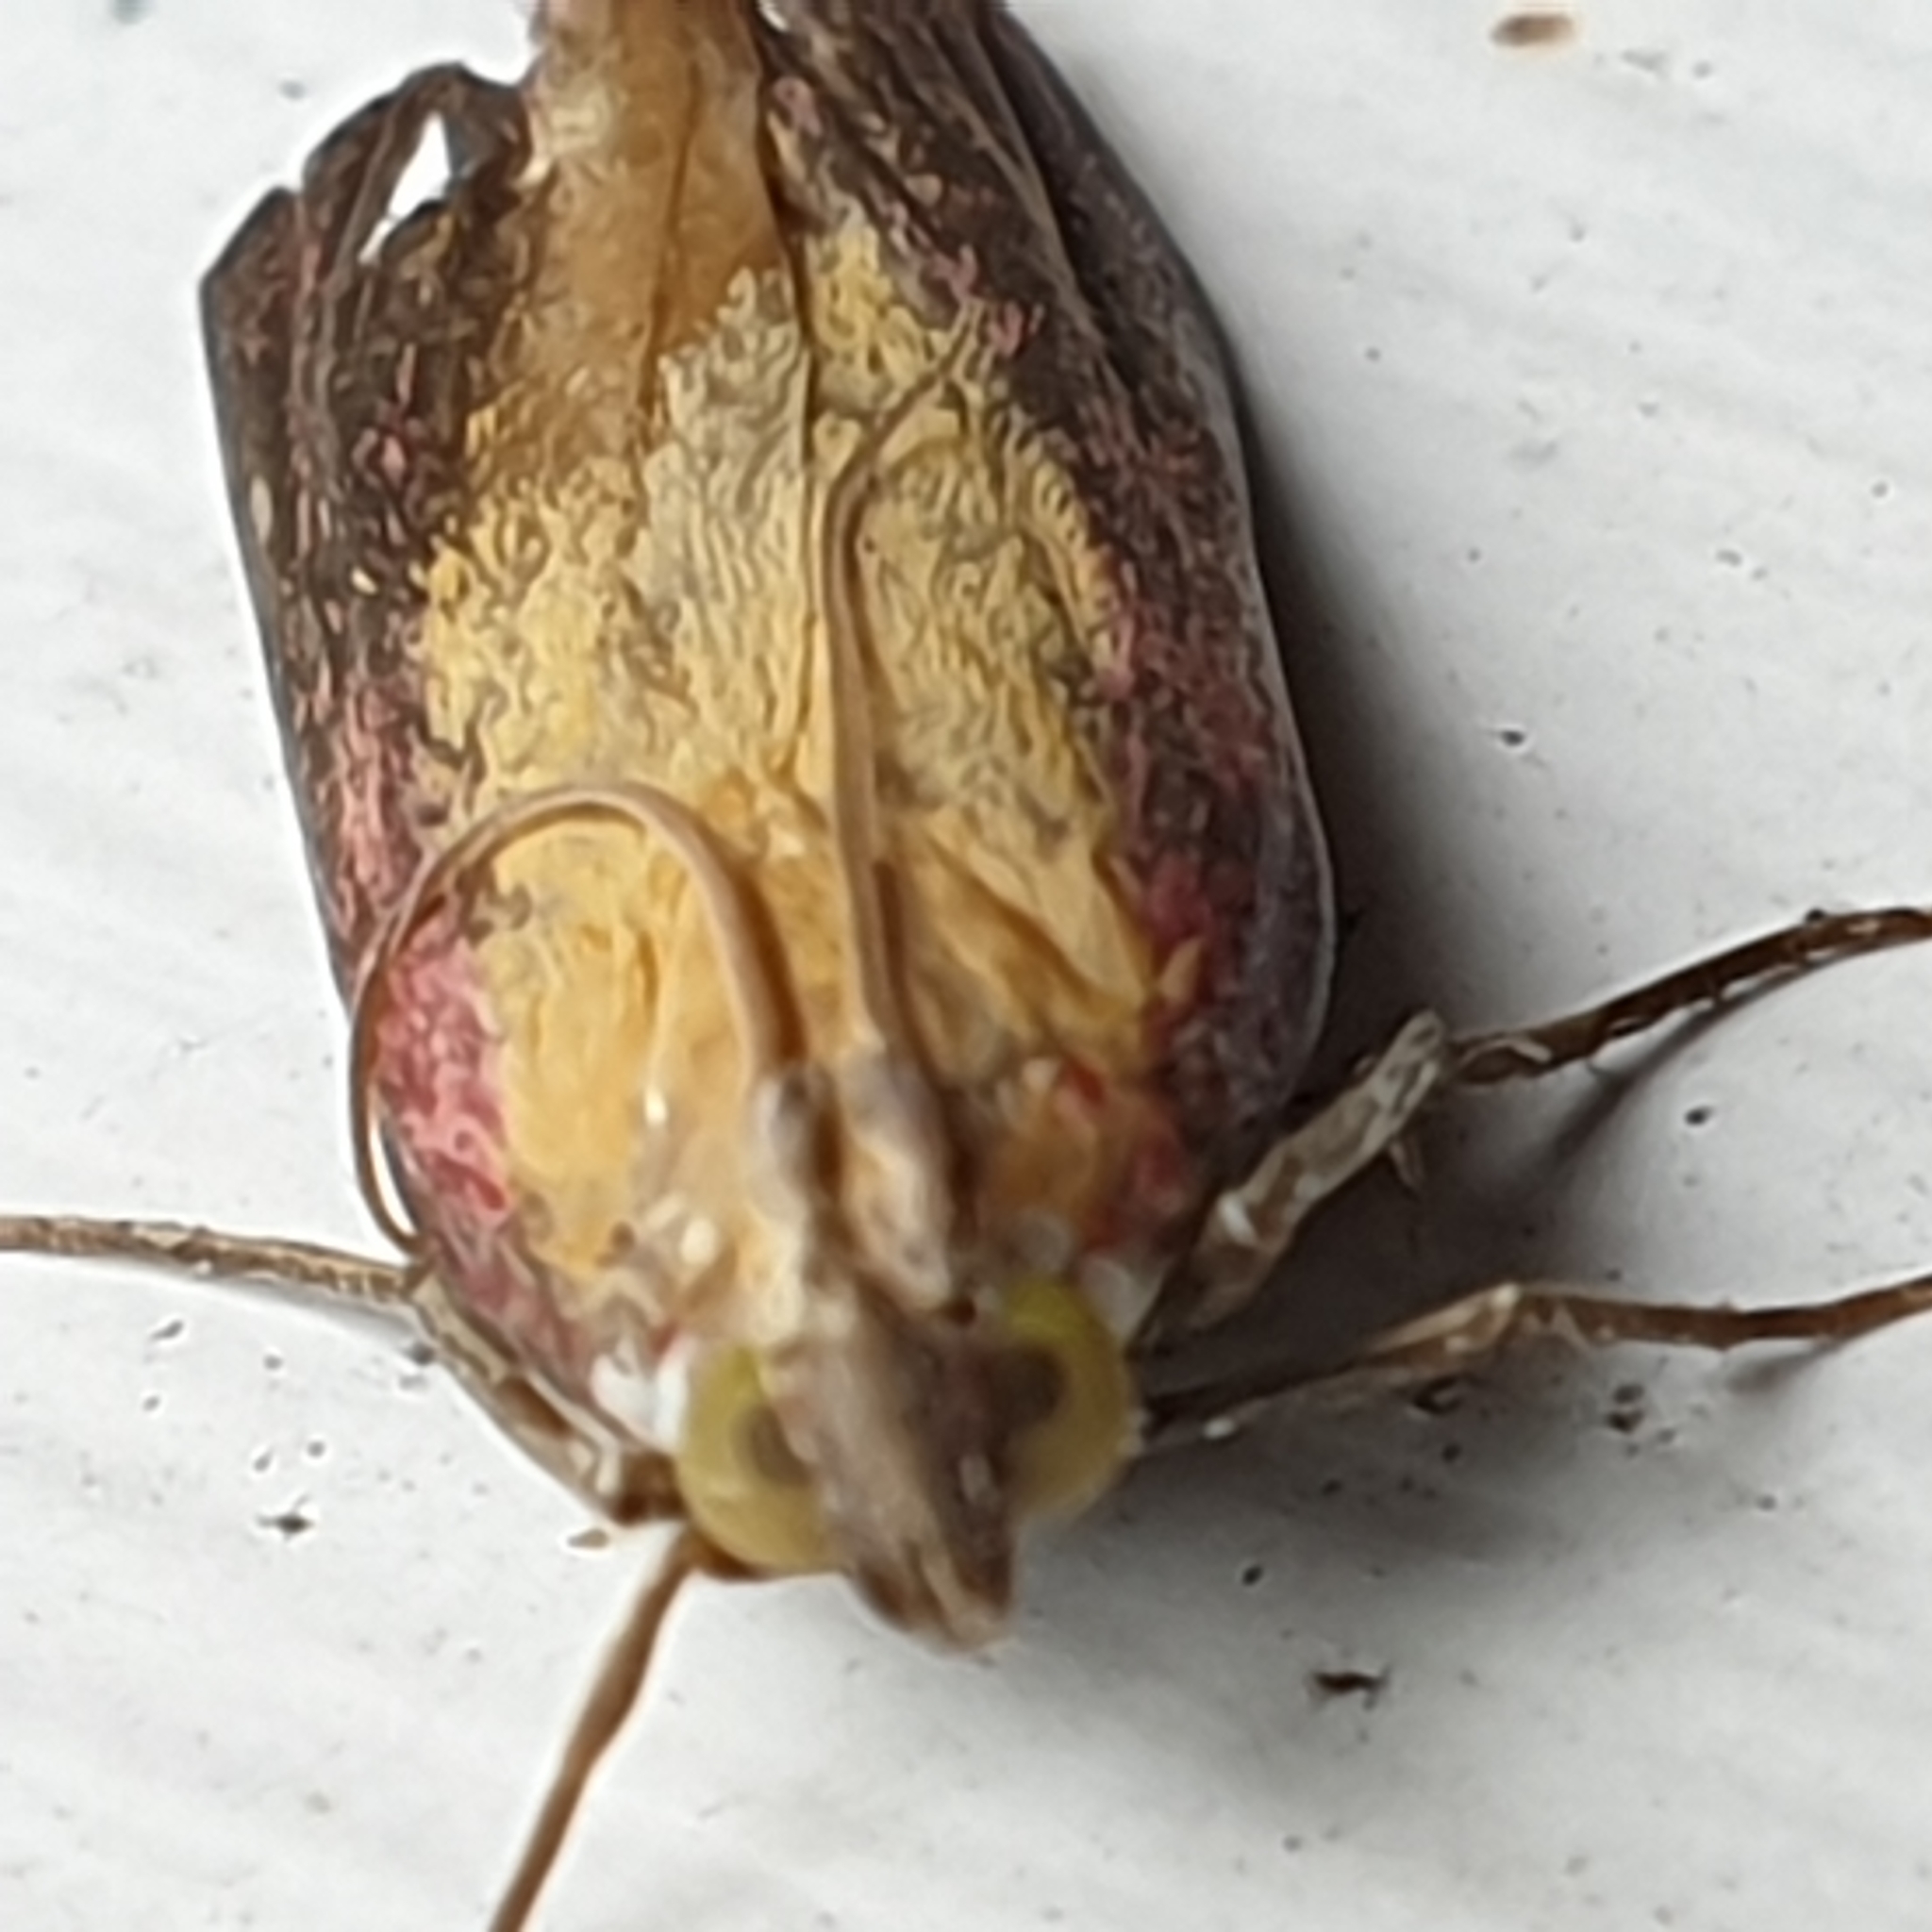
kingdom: Animalia
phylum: Arthropoda
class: Insecta
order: Lepidoptera
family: Pyralidae
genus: Oncocera
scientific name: Oncocera semirubella
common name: Rosy-striped knot-horn
